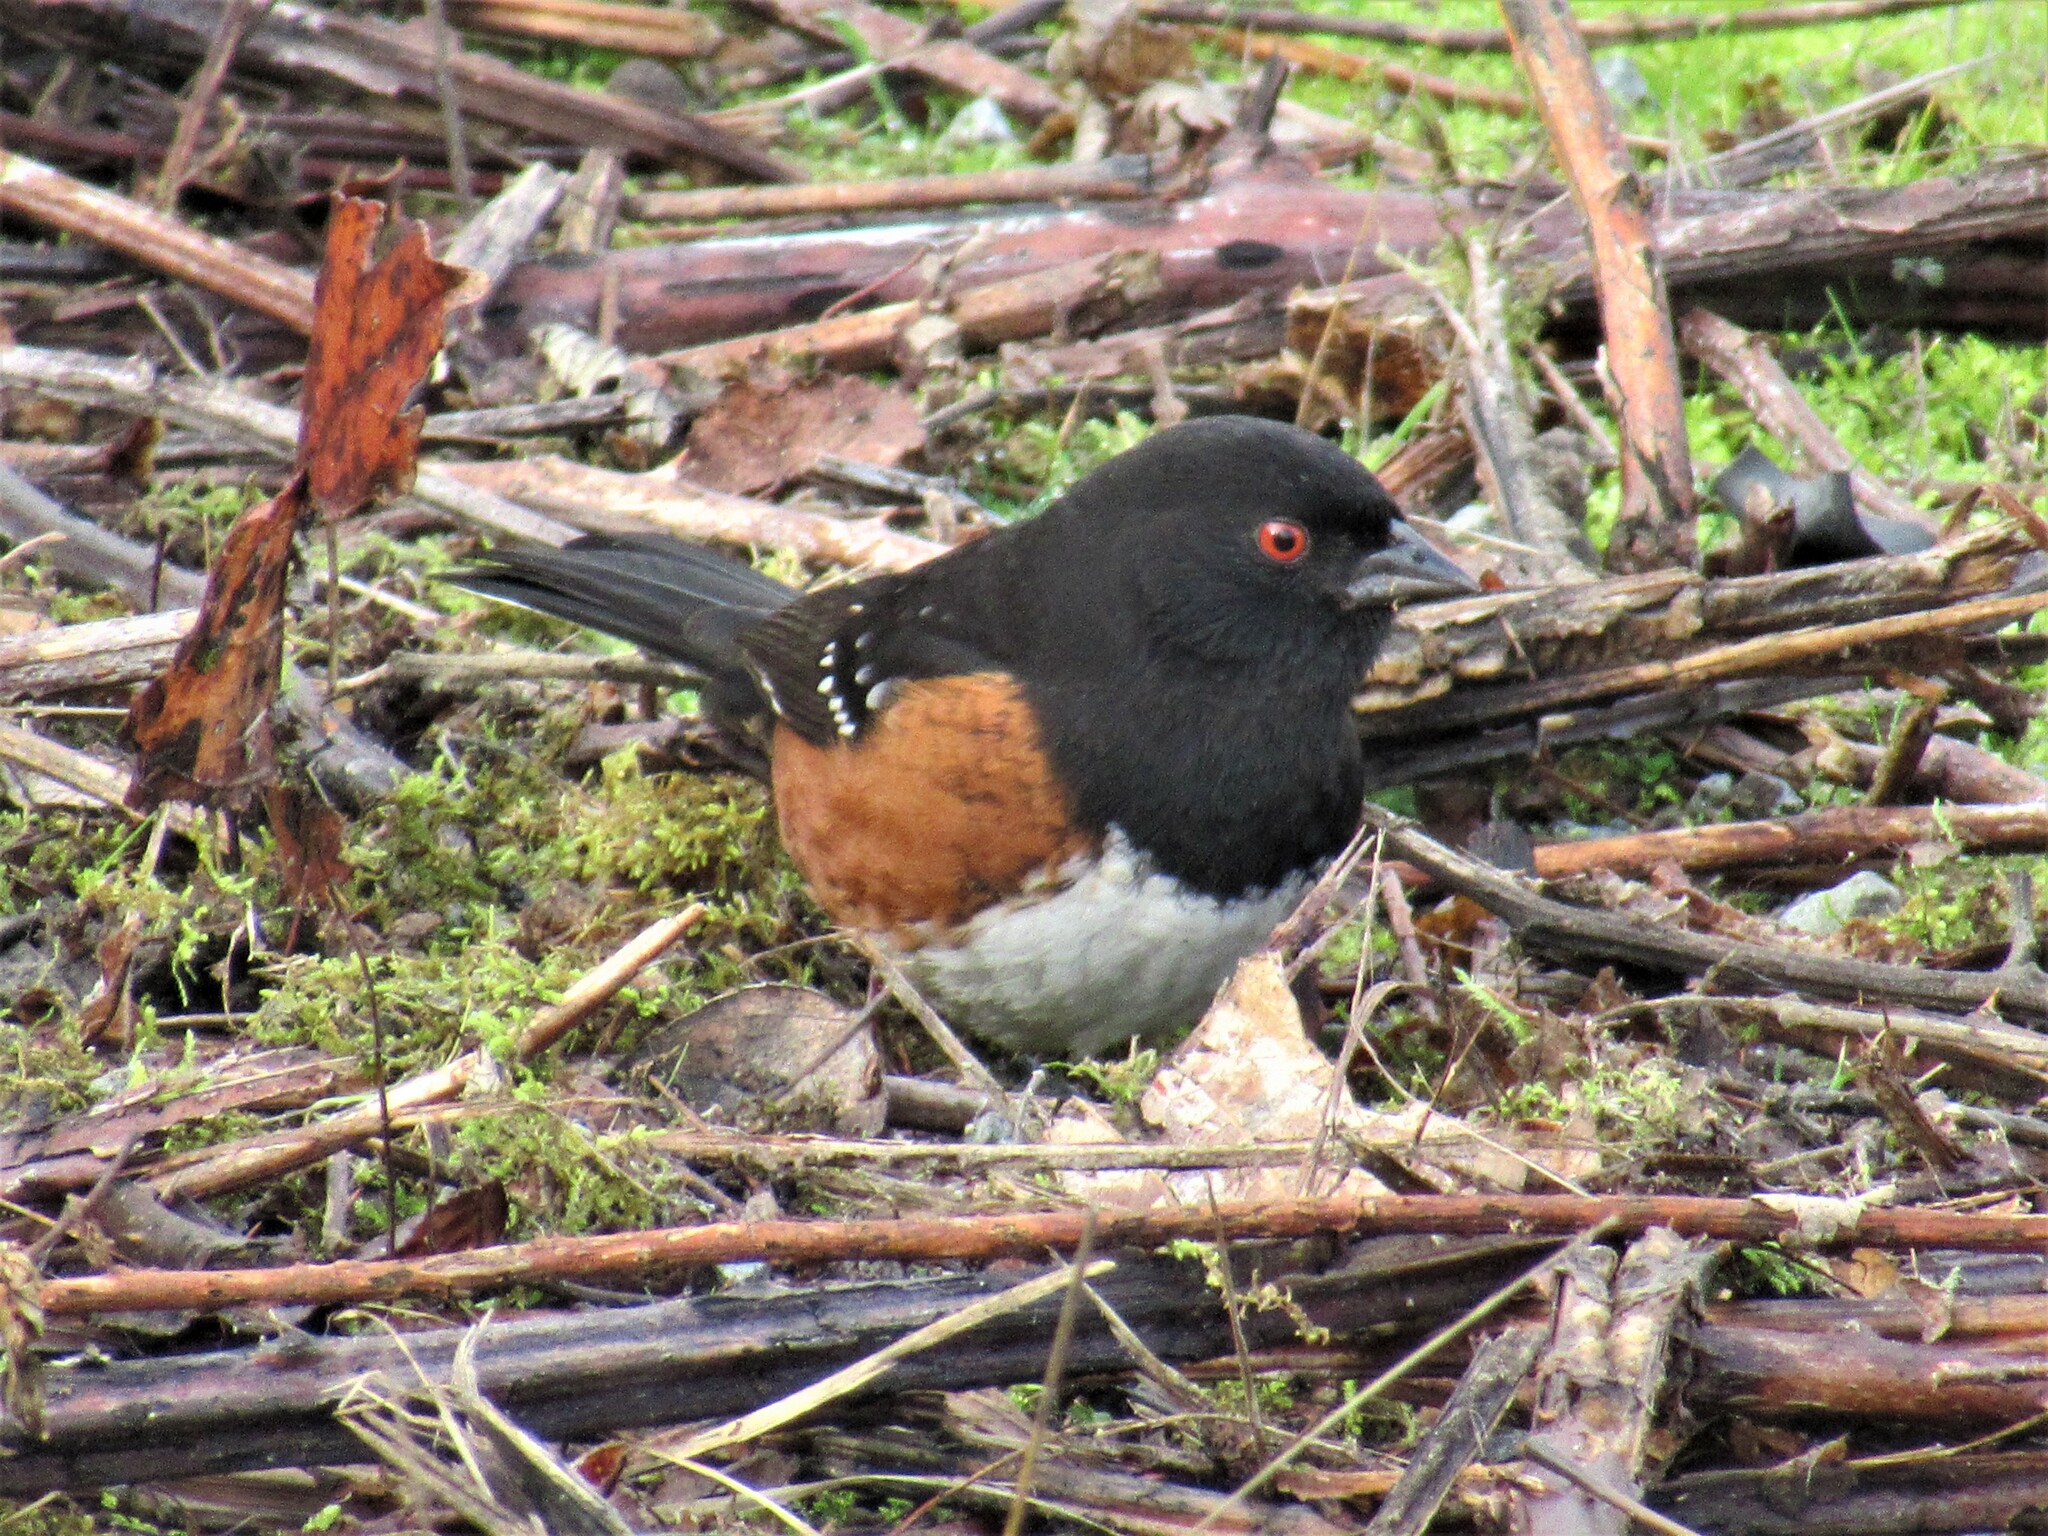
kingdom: Animalia
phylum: Chordata
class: Aves
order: Passeriformes
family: Passerellidae
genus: Pipilo
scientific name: Pipilo maculatus
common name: Spotted towhee
